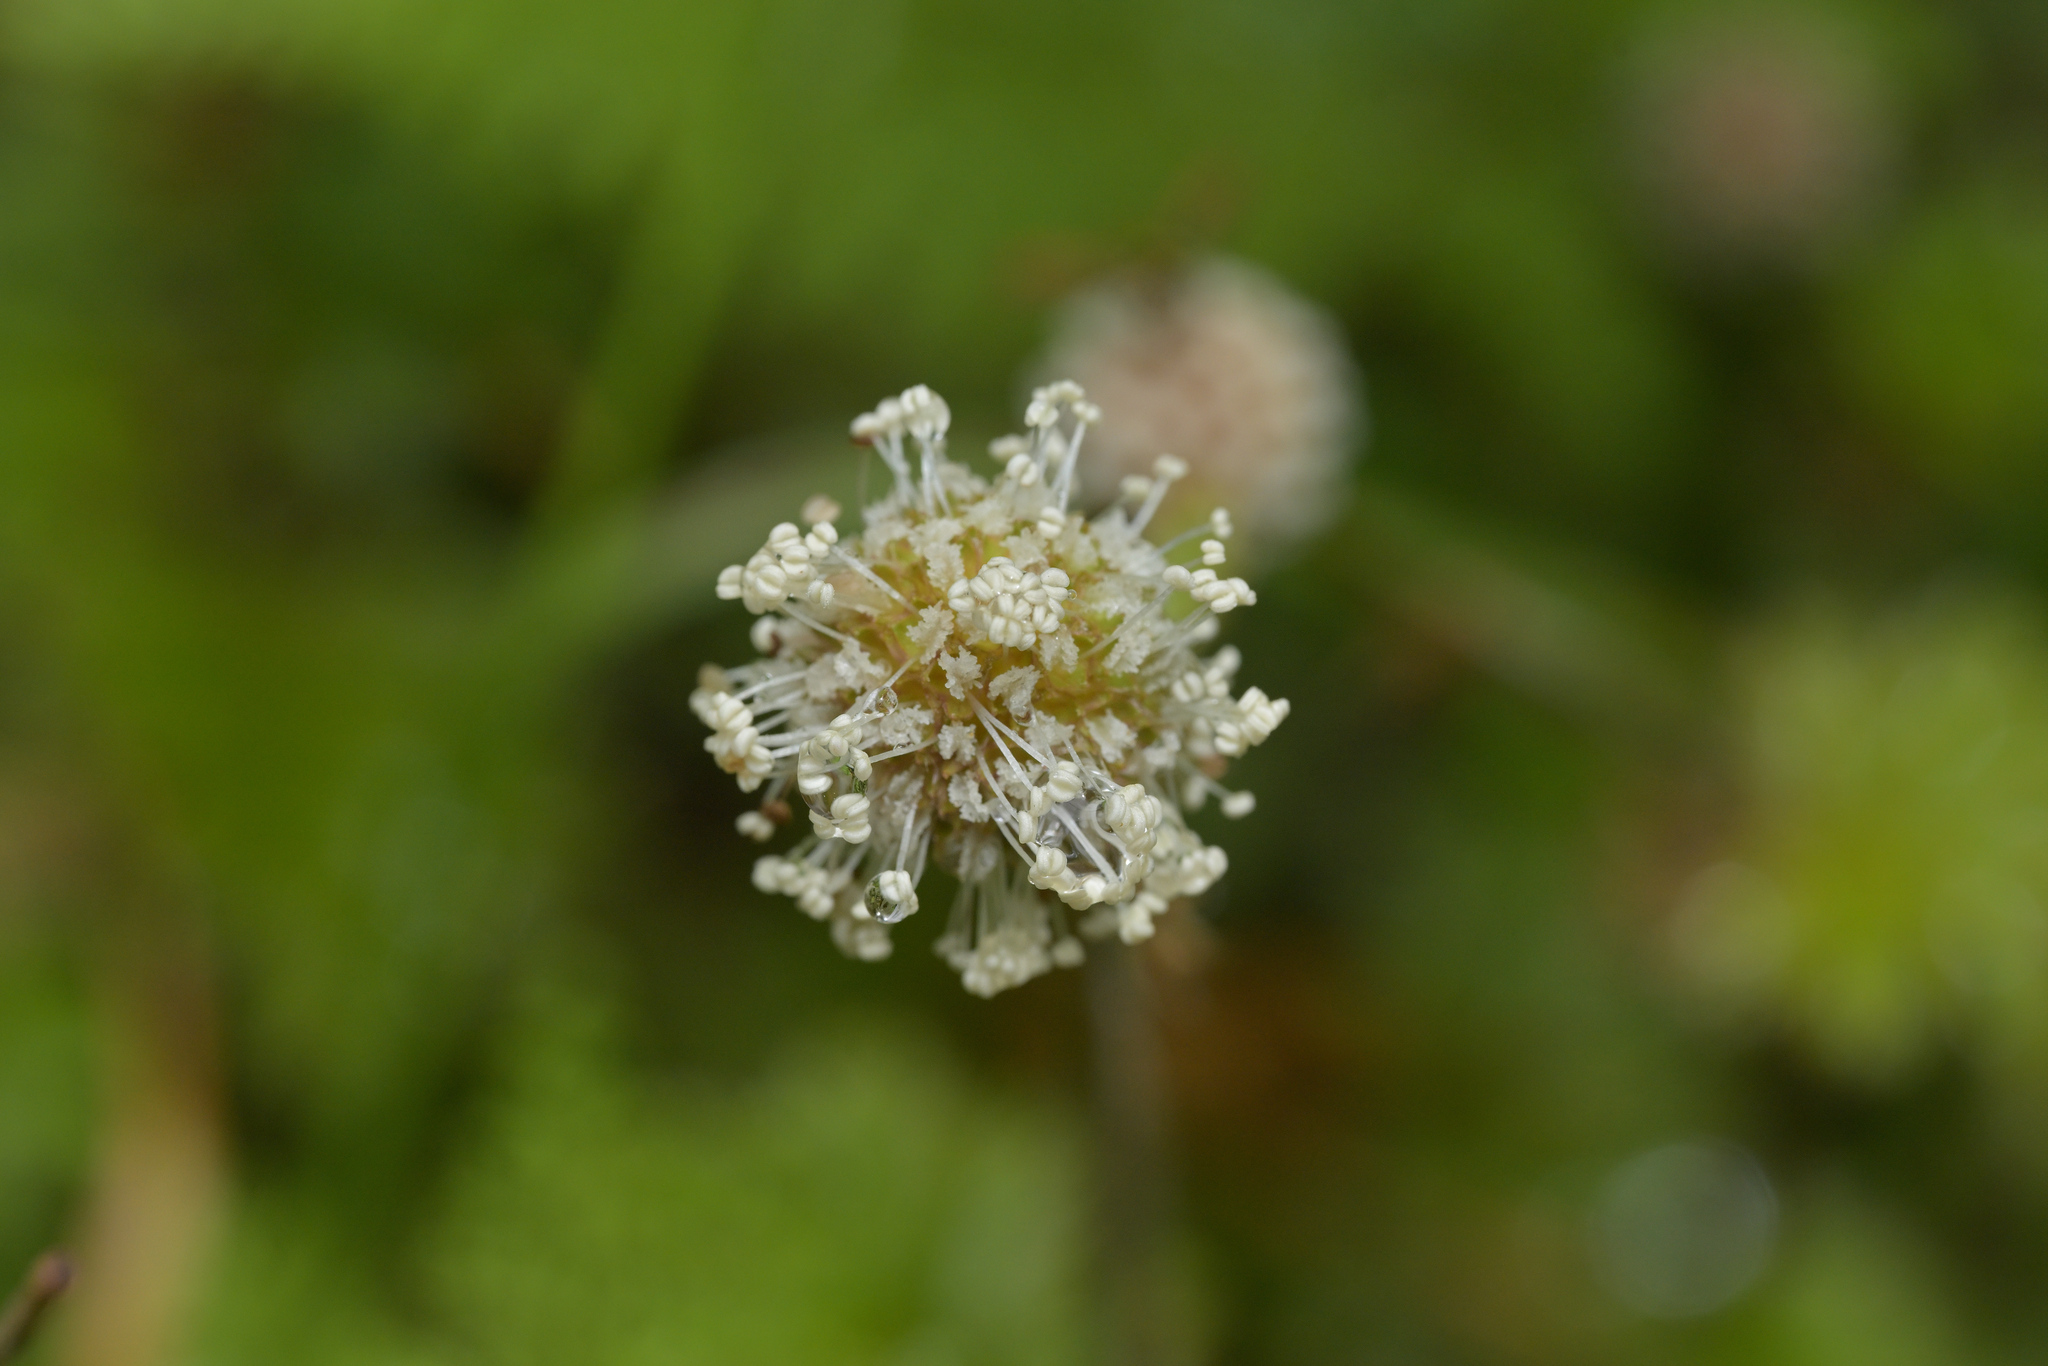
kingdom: Plantae
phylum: Tracheophyta
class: Magnoliopsida
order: Rosales
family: Rosaceae
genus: Acaena
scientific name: Acaena anserinifolia
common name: Bronze pirri-pirri-bur
